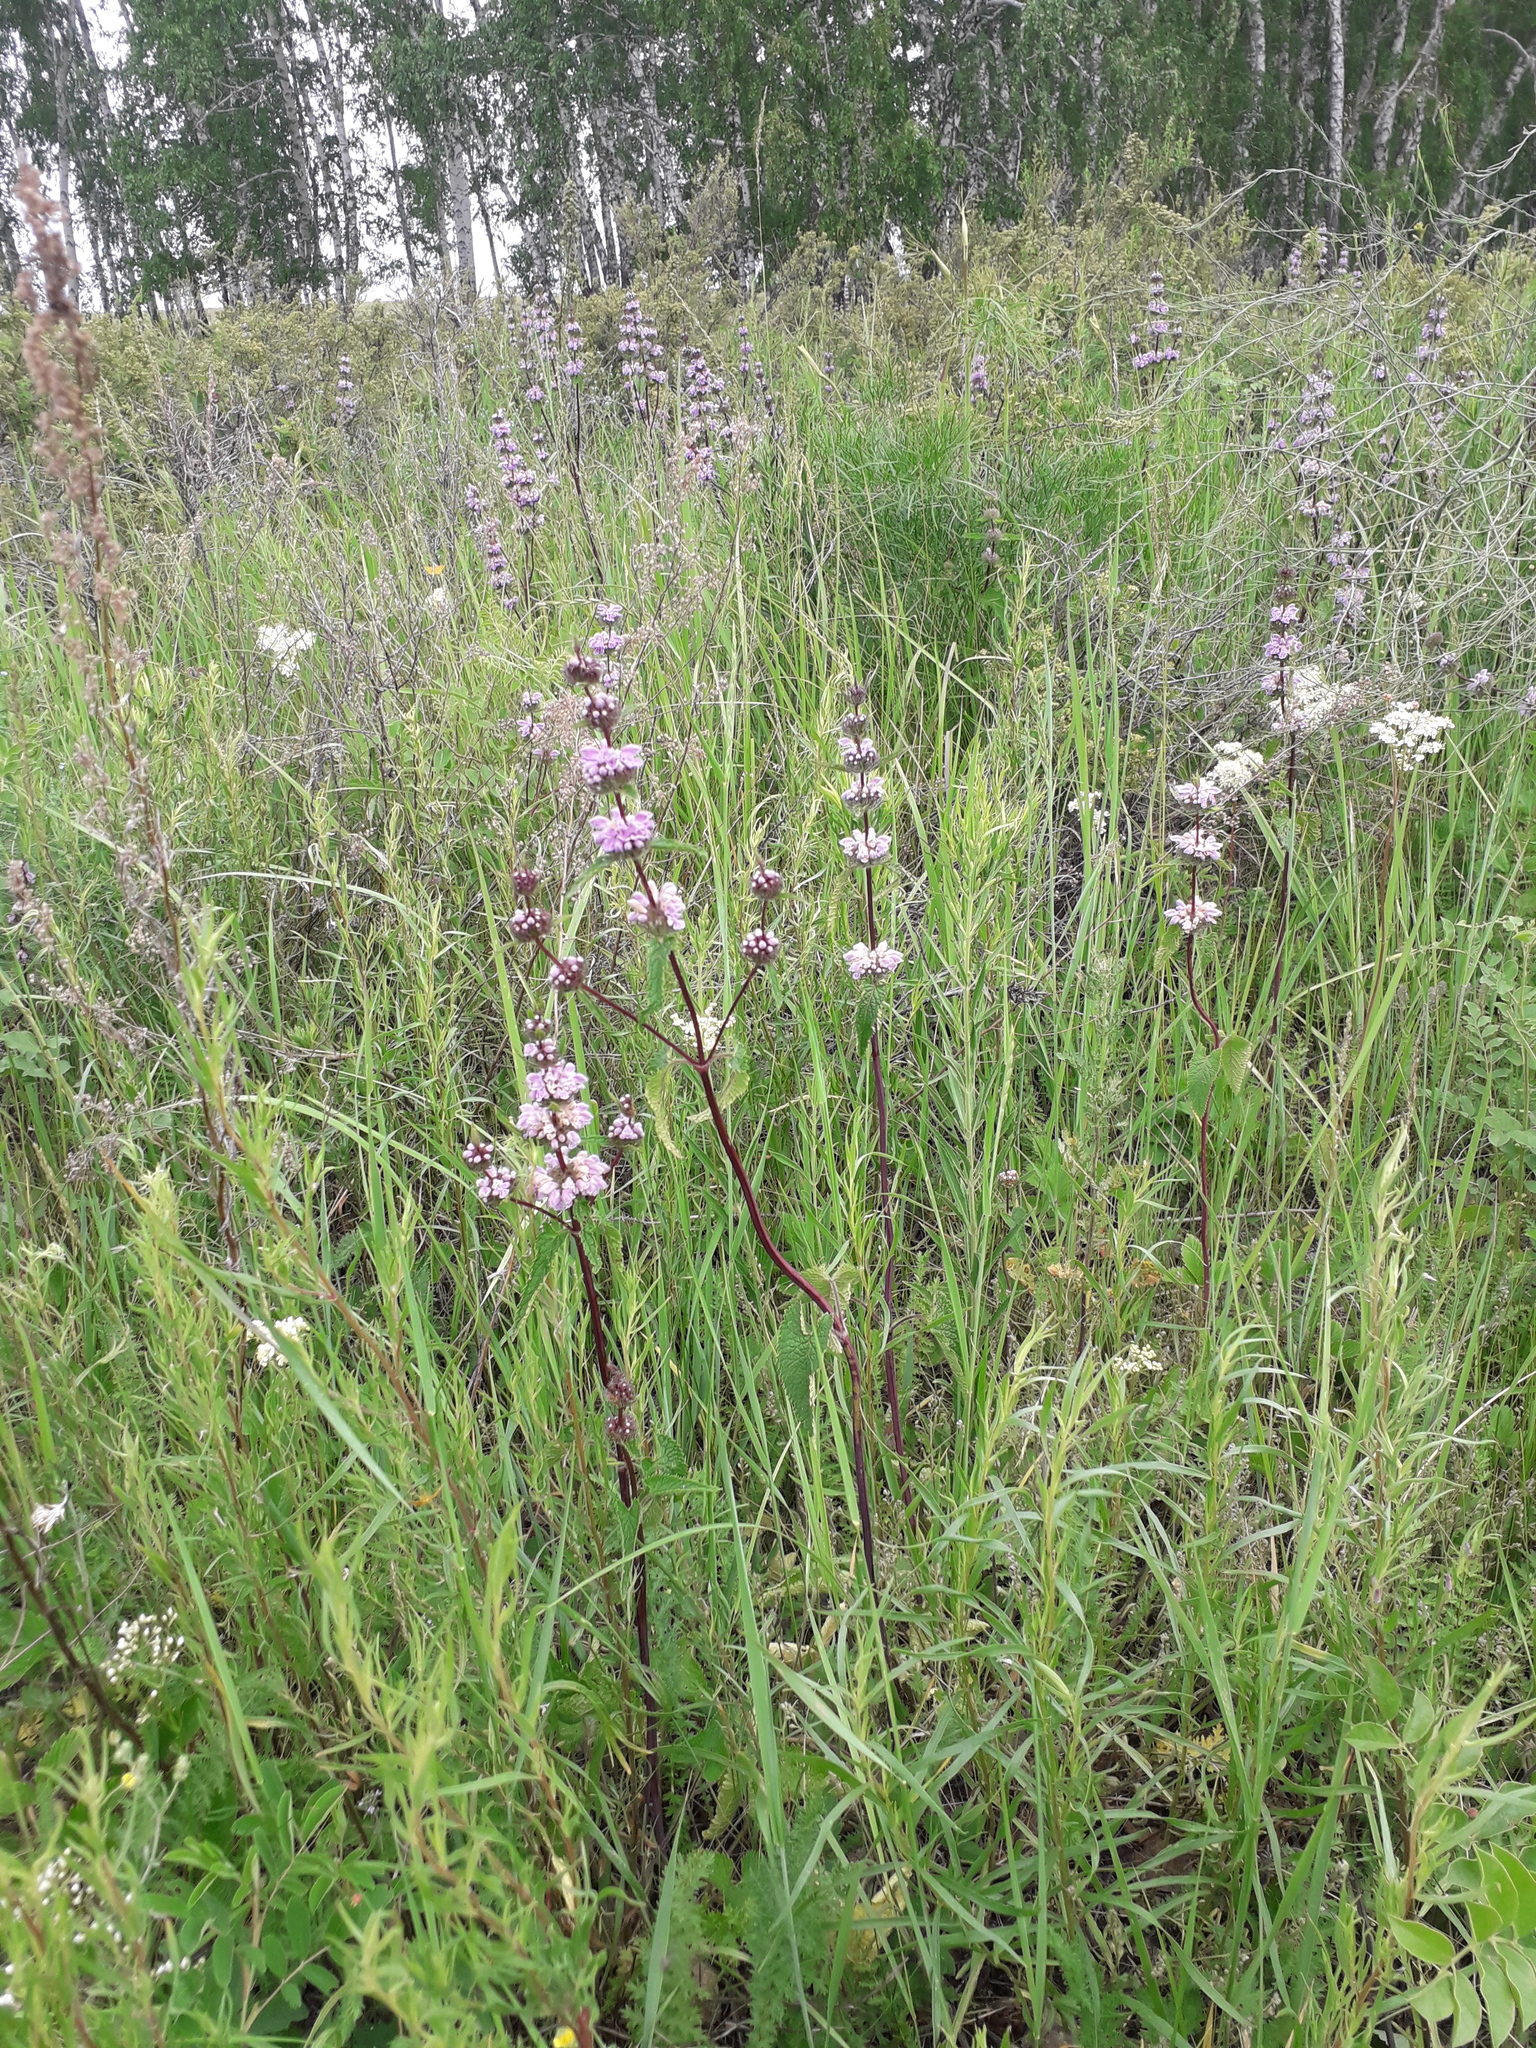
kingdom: Plantae
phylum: Tracheophyta
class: Magnoliopsida
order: Lamiales
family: Lamiaceae
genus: Phlomoides
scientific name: Phlomoides tuberosa
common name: Tuberous jerusalem sage
